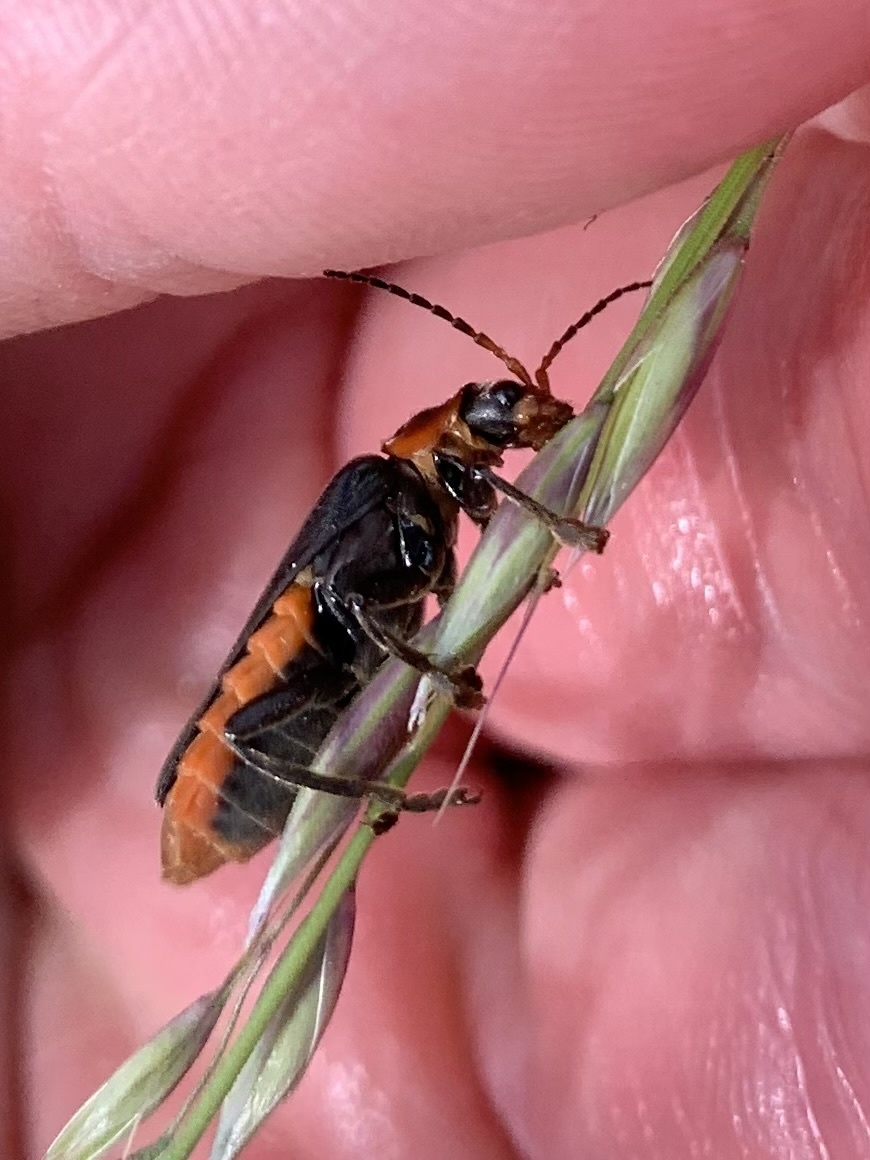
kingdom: Animalia
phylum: Arthropoda
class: Insecta
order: Coleoptera
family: Cantharidae
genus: Cantharis
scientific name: Cantharis fusca
